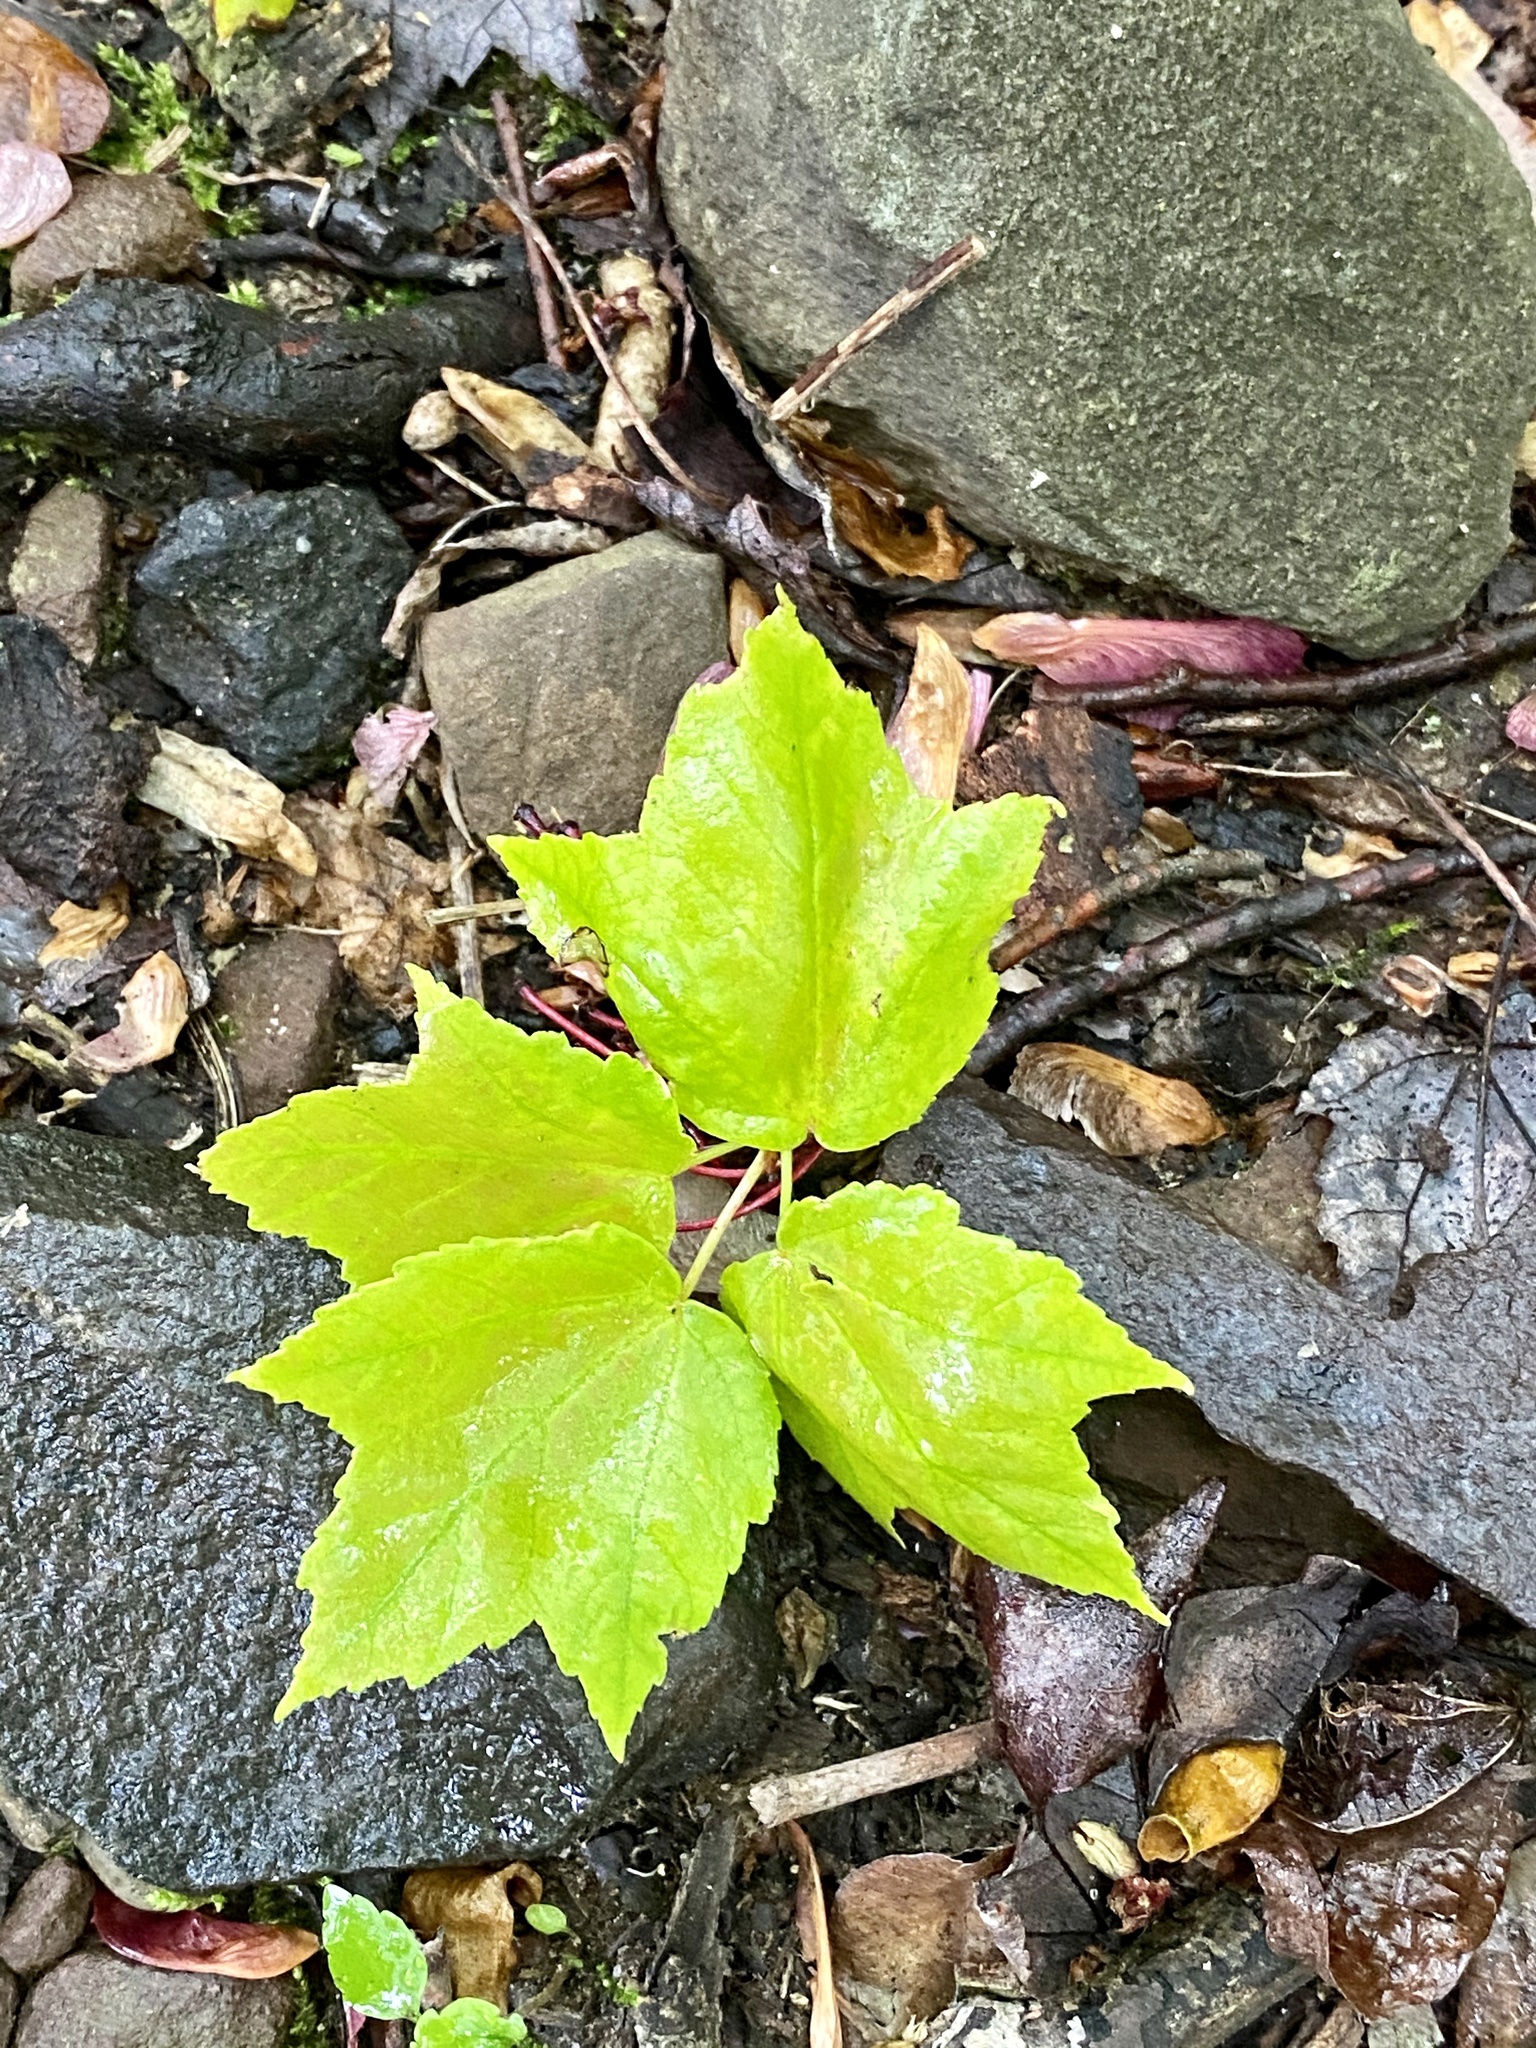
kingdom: Plantae
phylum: Tracheophyta
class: Magnoliopsida
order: Sapindales
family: Sapindaceae
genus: Acer
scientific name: Acer rubrum
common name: Red maple
